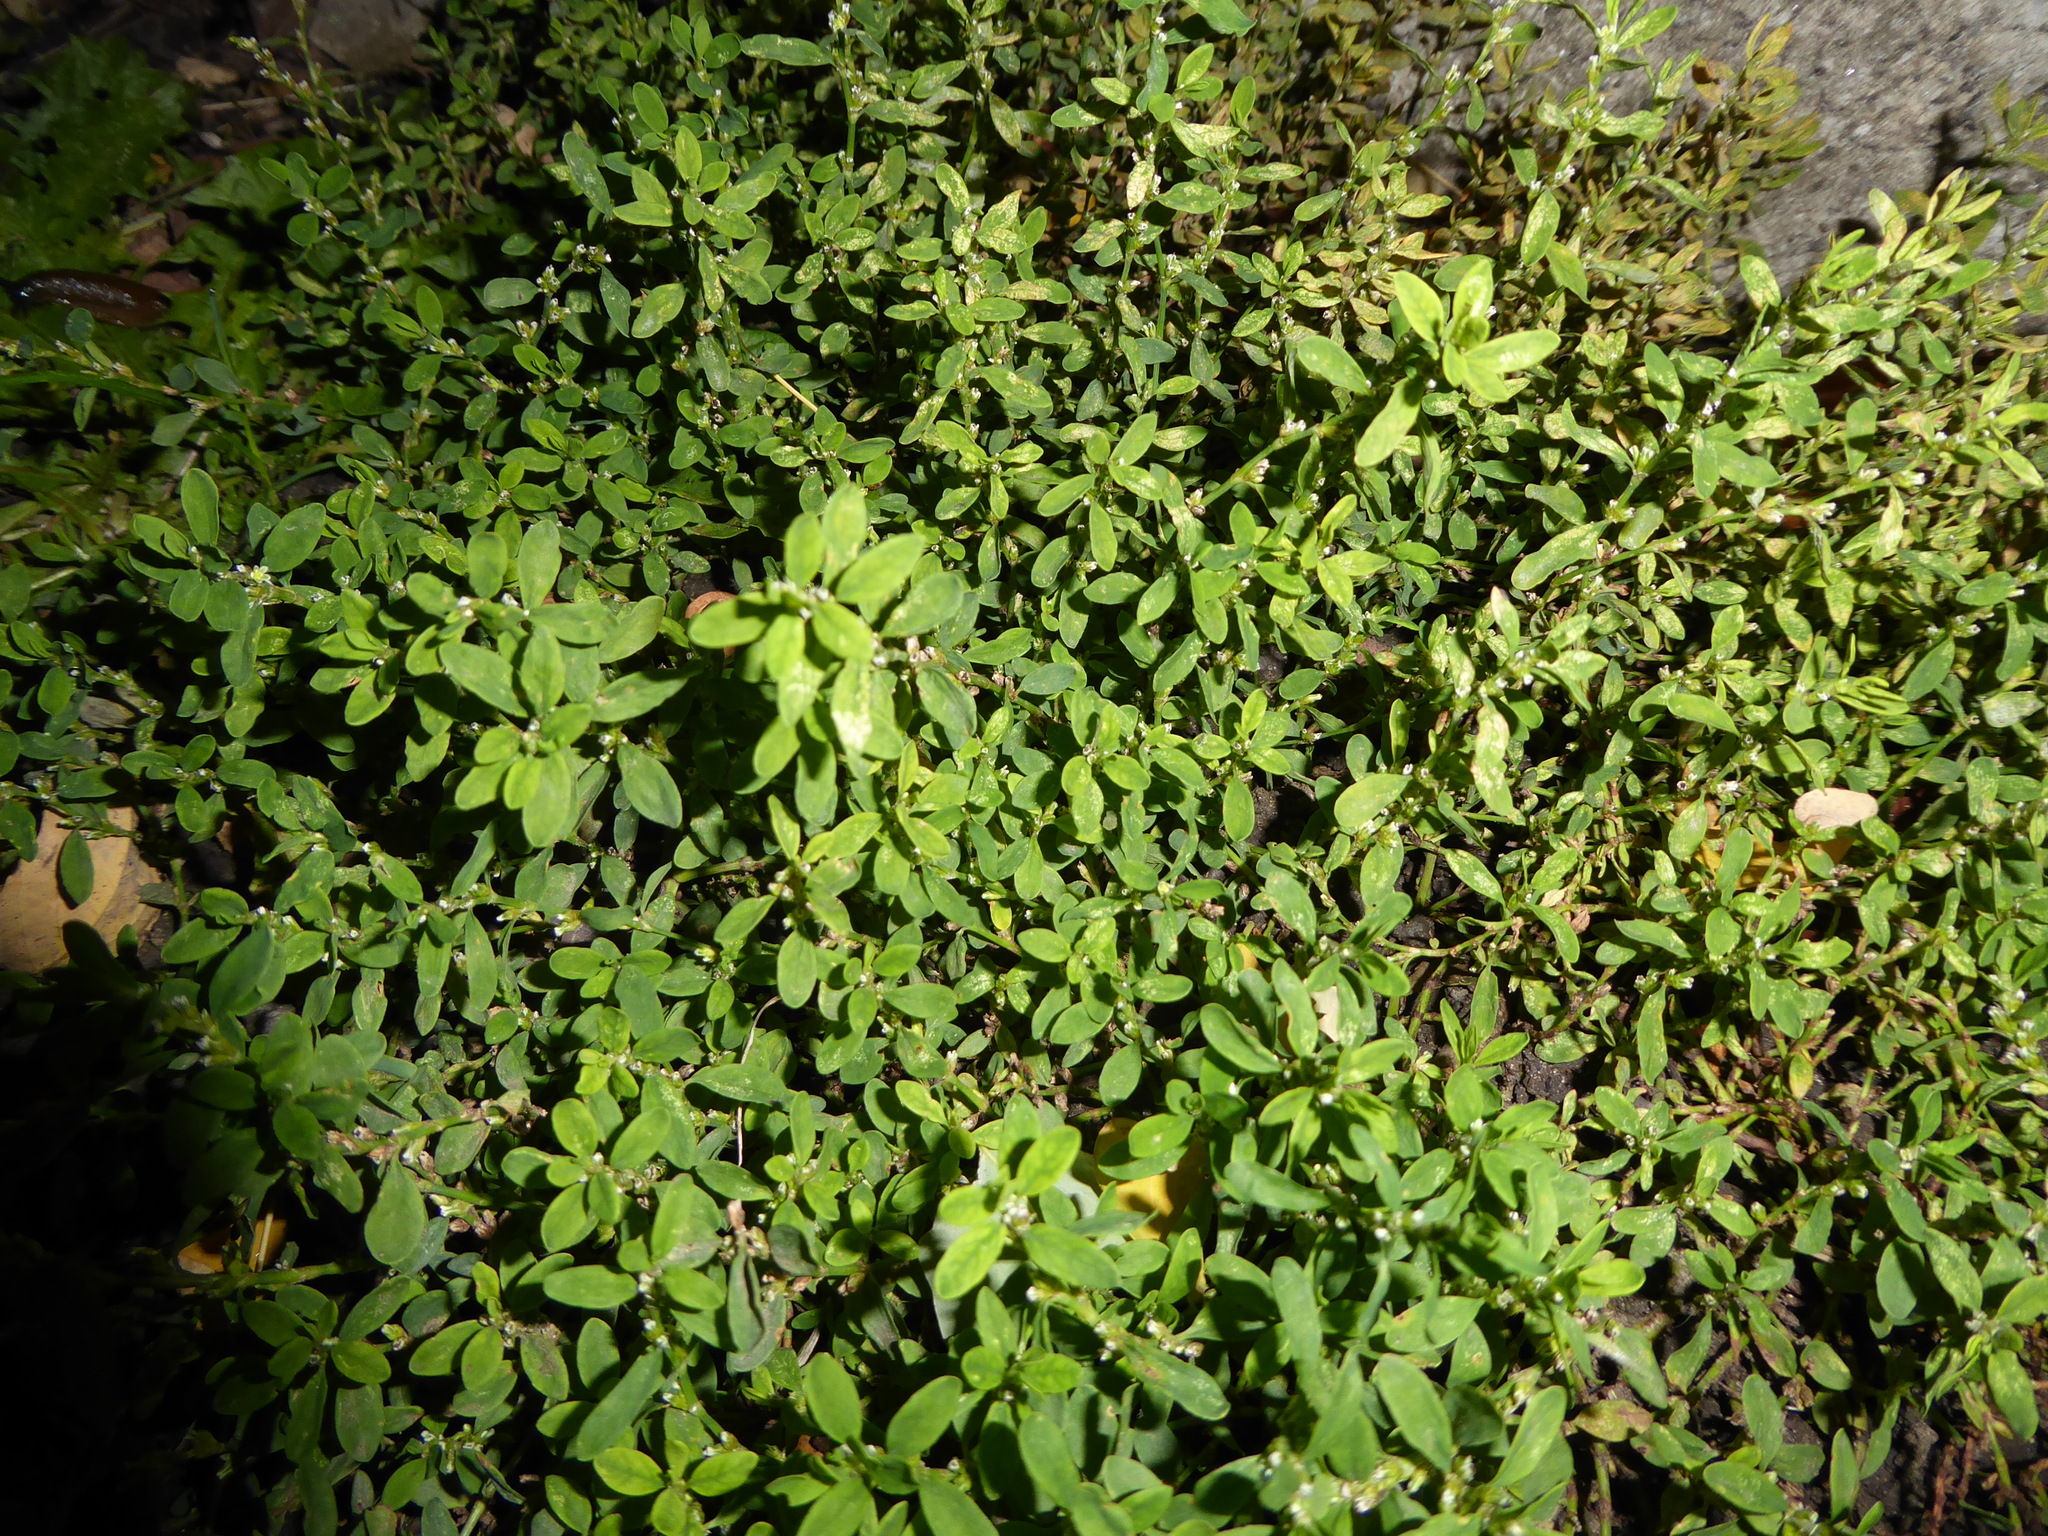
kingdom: Plantae
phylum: Tracheophyta
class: Magnoliopsida
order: Caryophyllales
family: Polygonaceae
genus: Polygonum
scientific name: Polygonum
